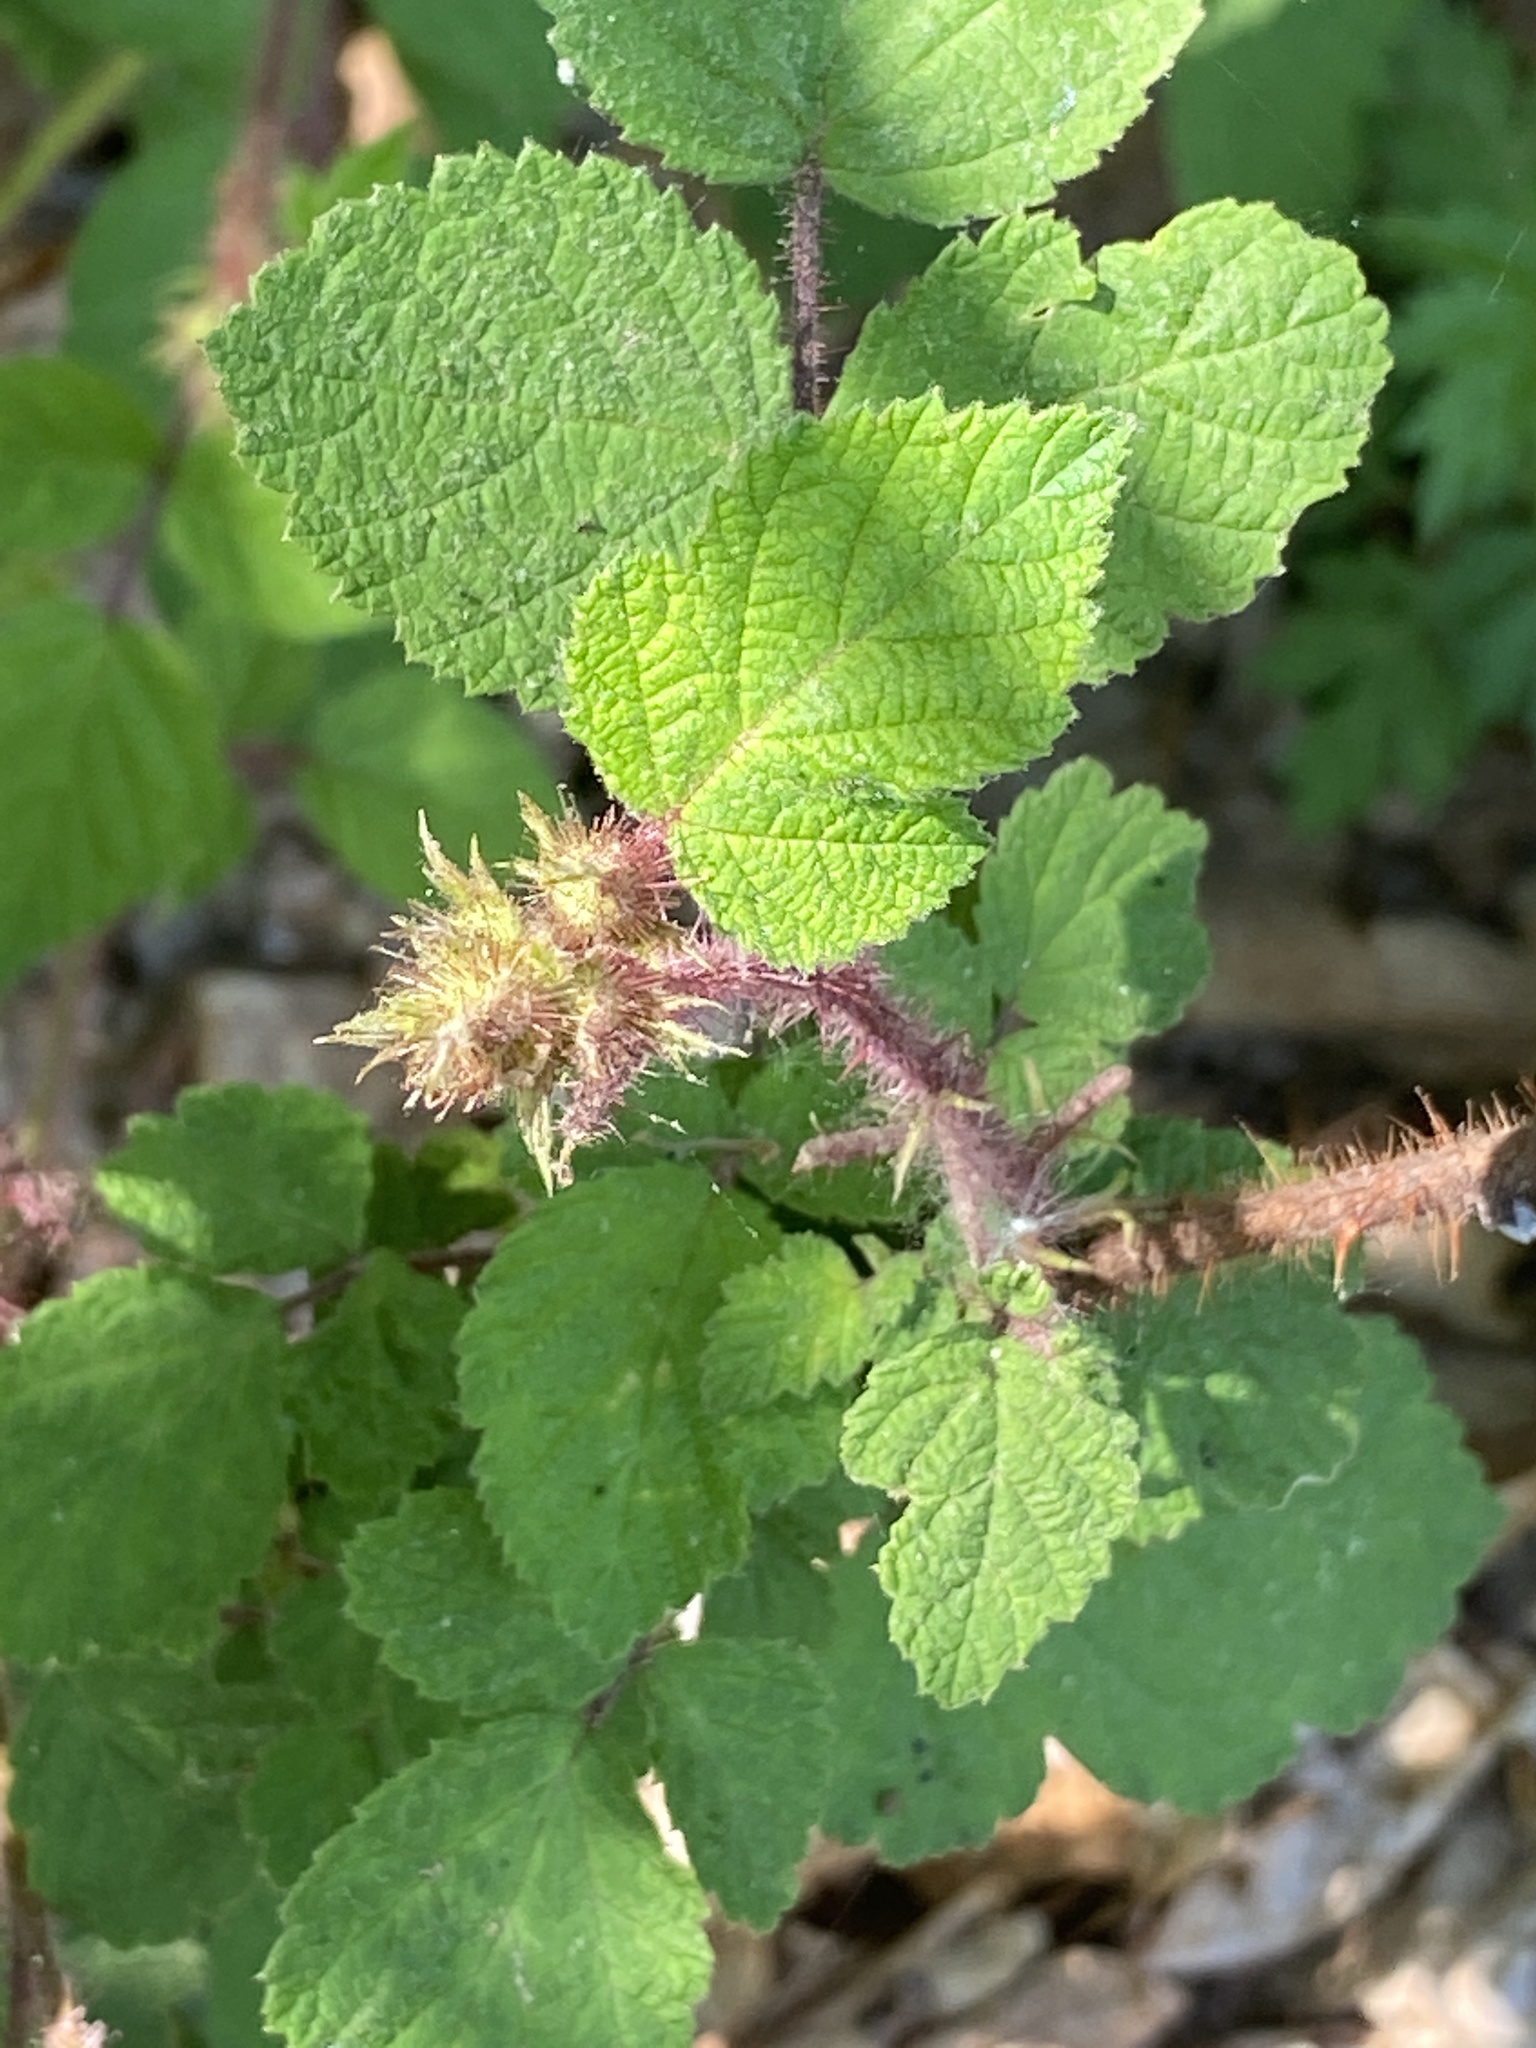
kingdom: Plantae
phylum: Tracheophyta
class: Magnoliopsida
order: Rosales
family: Rosaceae
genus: Rubus
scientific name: Rubus phoenicolasius
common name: Japanese wineberry
